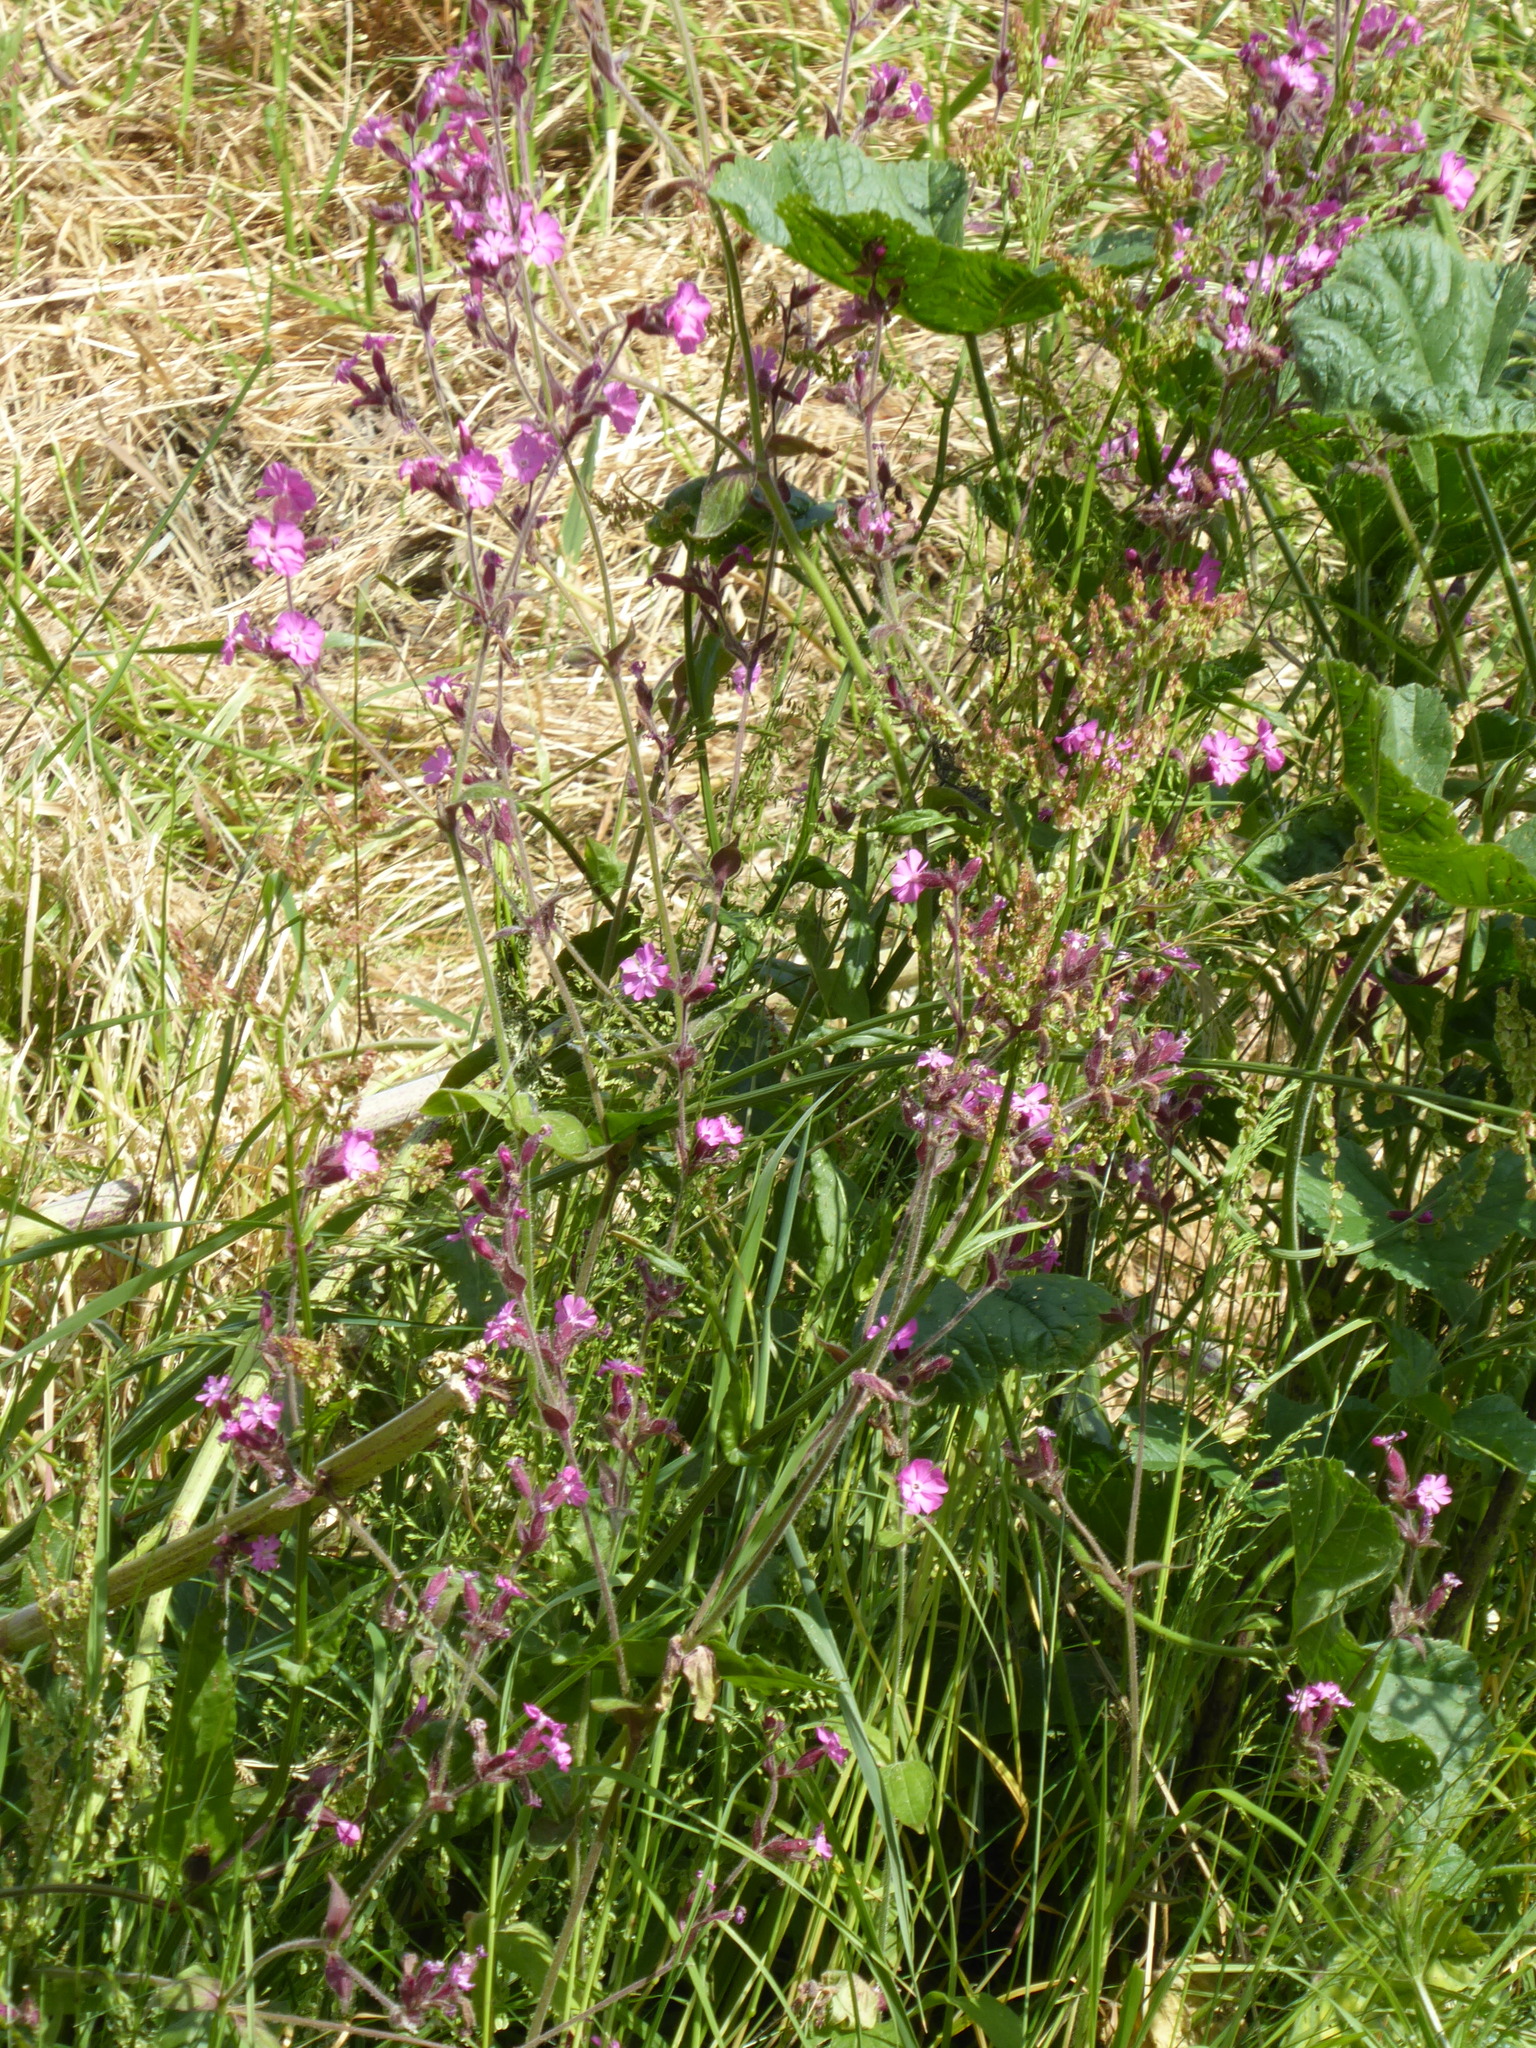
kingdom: Plantae
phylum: Tracheophyta
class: Magnoliopsida
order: Caryophyllales
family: Caryophyllaceae
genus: Silene
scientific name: Silene dioica
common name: Red campion
